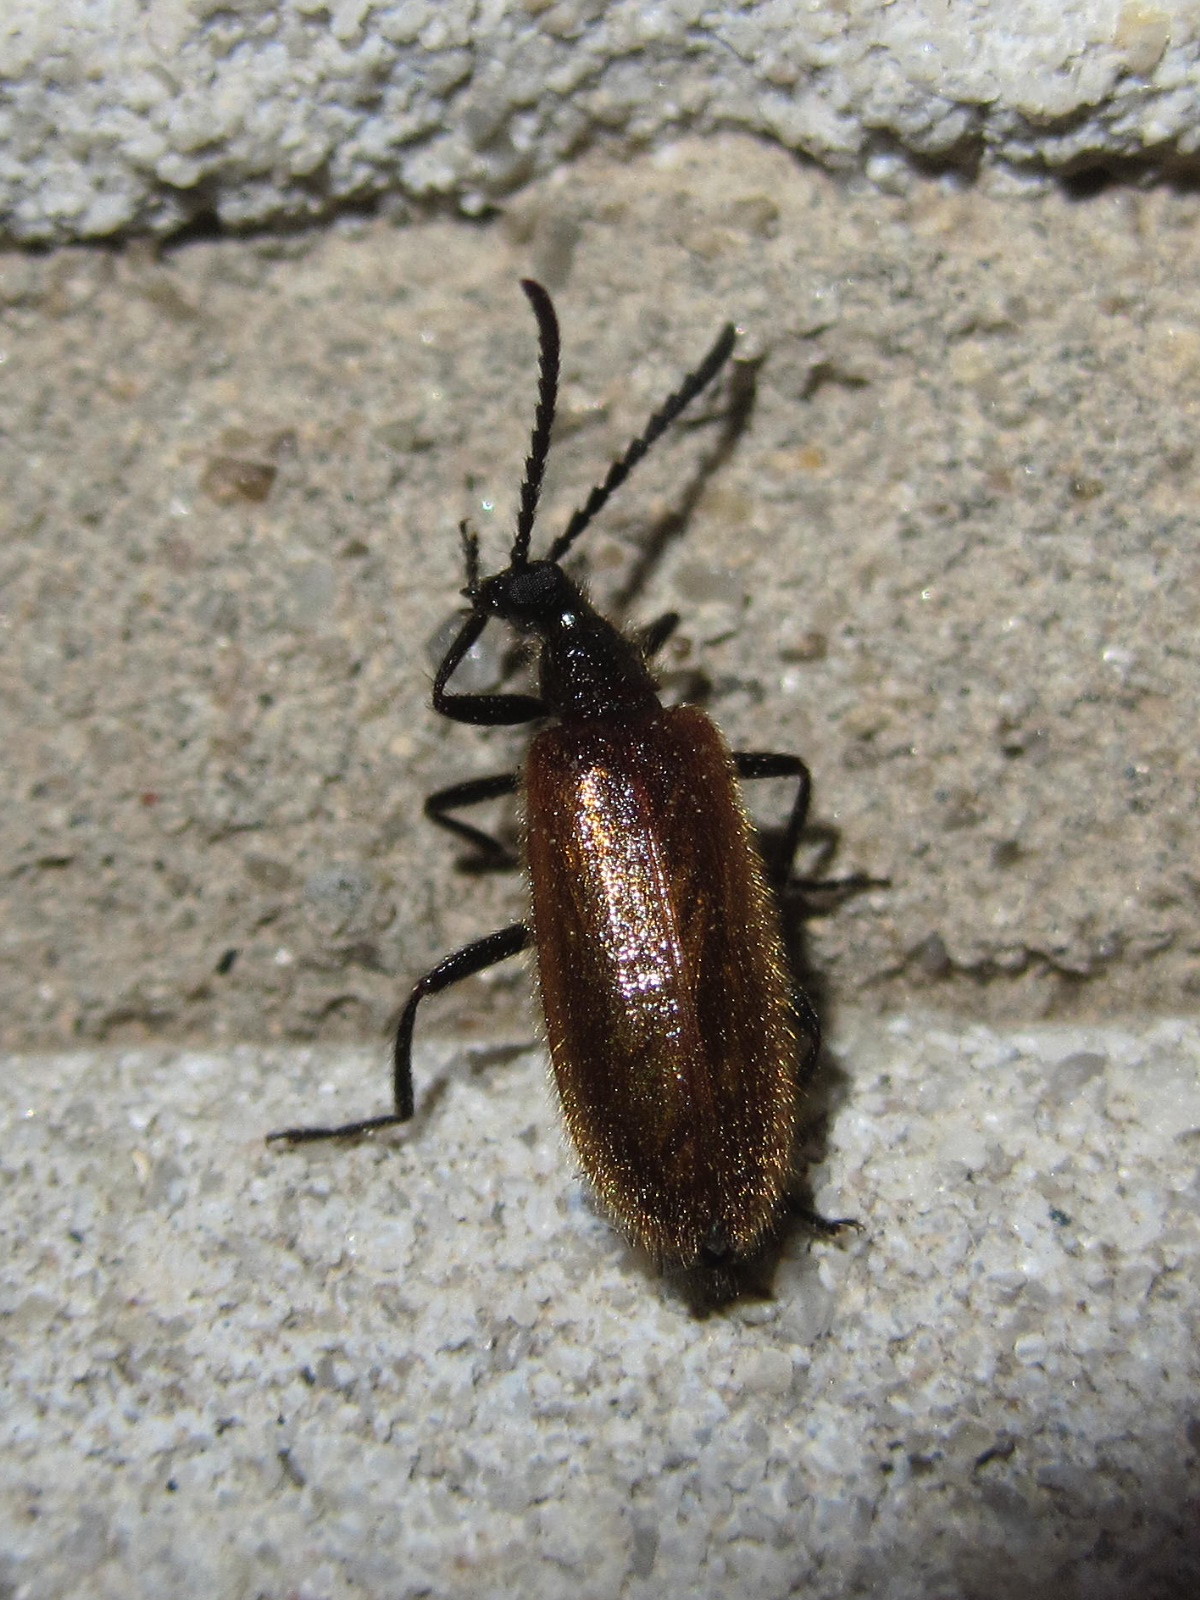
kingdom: Animalia
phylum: Arthropoda
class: Insecta
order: Coleoptera
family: Tenebrionidae
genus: Lagria
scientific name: Lagria hirta
